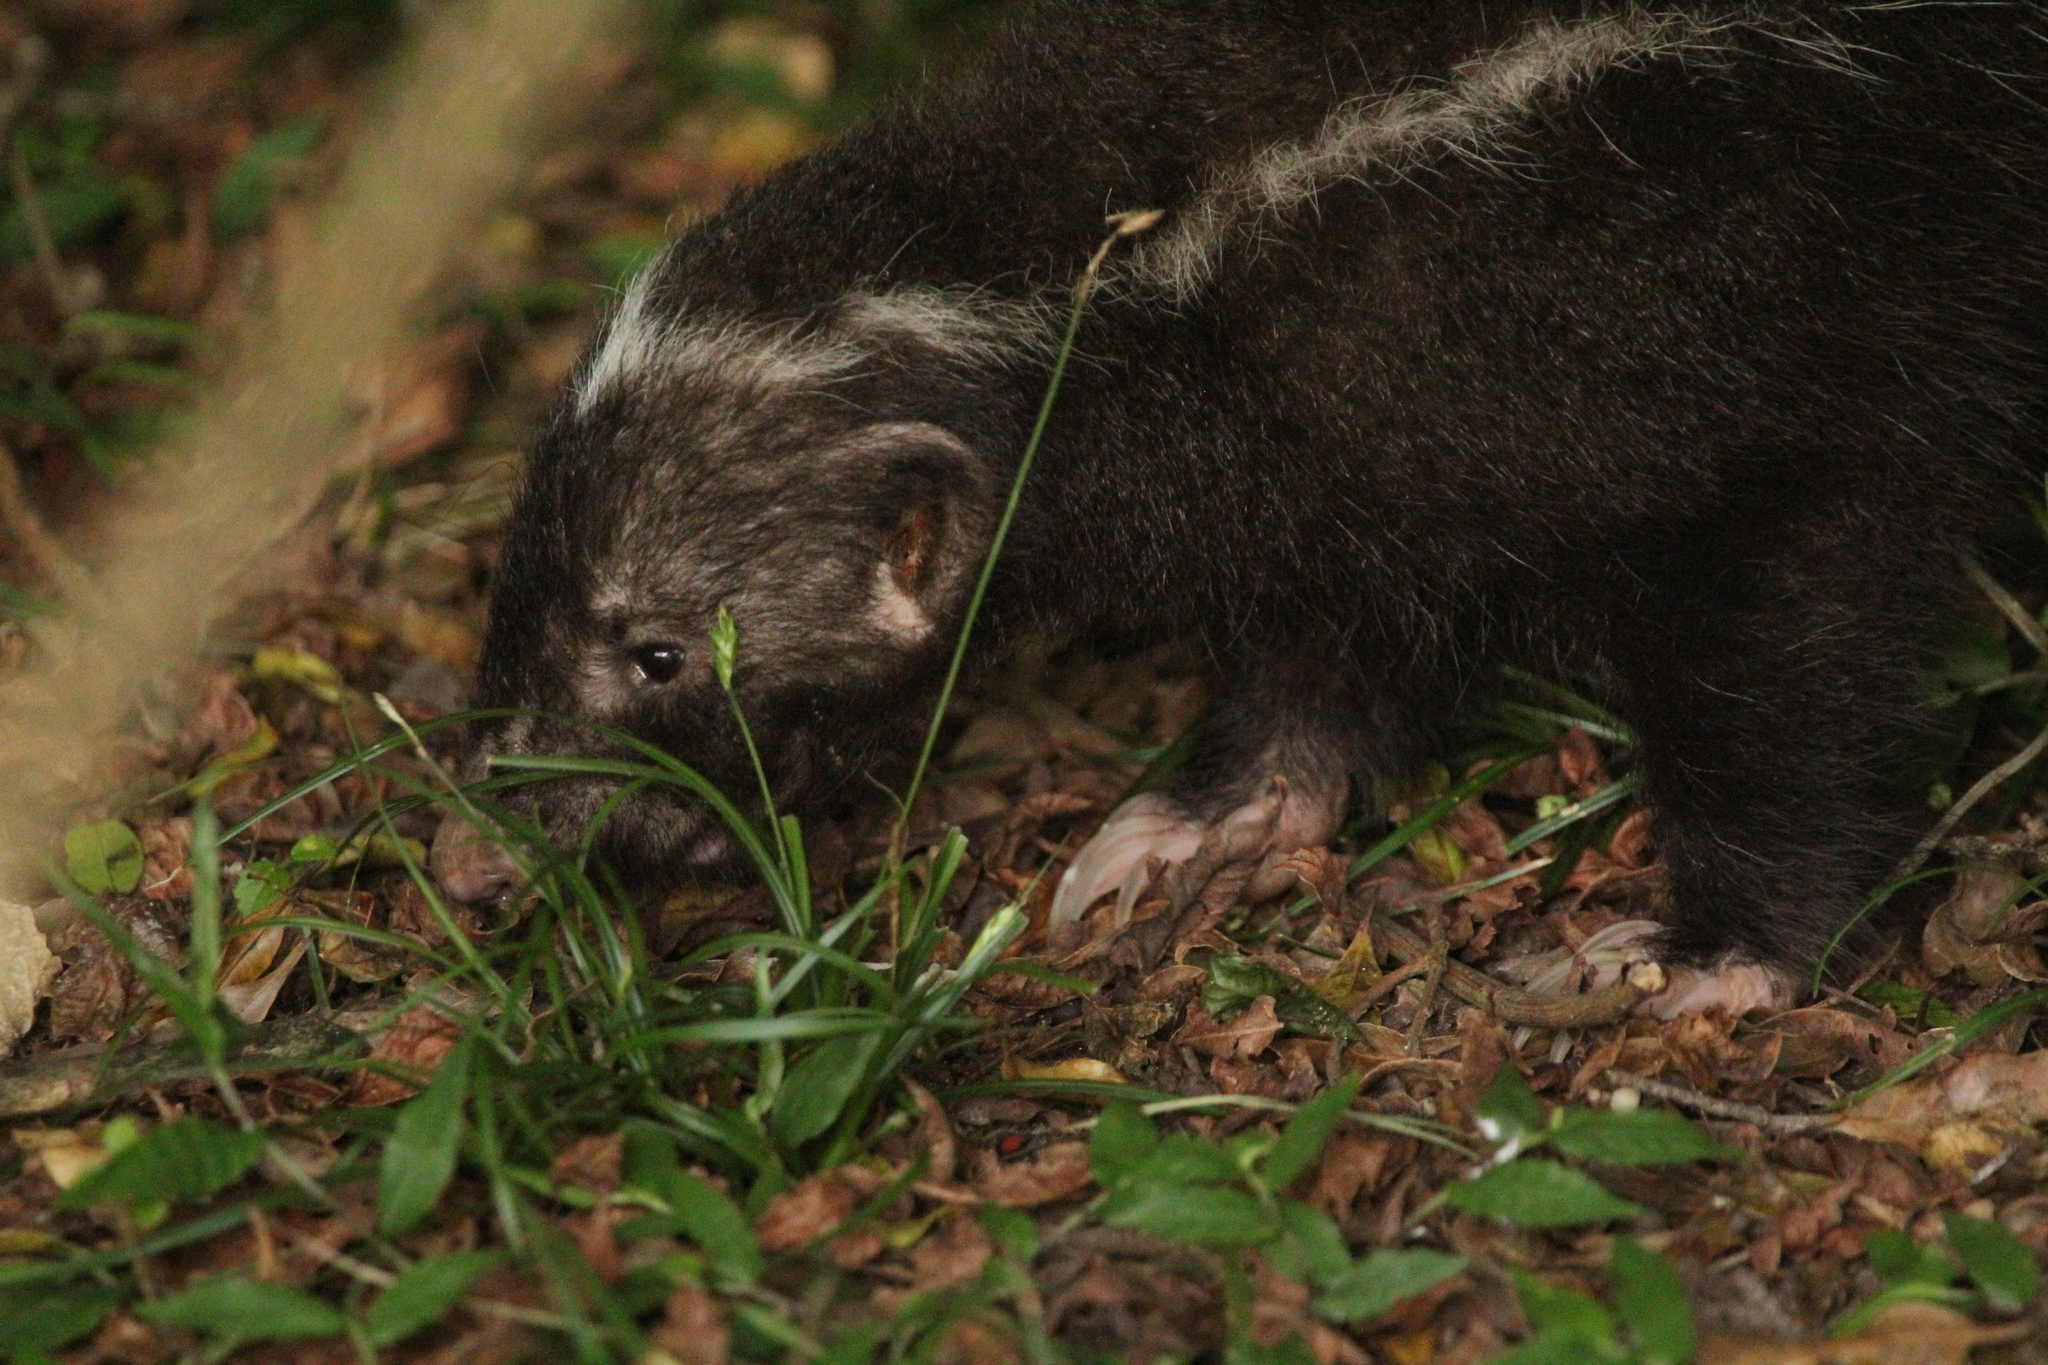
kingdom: Animalia
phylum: Chordata
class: Mammalia
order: Carnivora
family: Mephitidae
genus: Conepatus
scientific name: Conepatus chinga
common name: Molina's hog-nosed skunk
